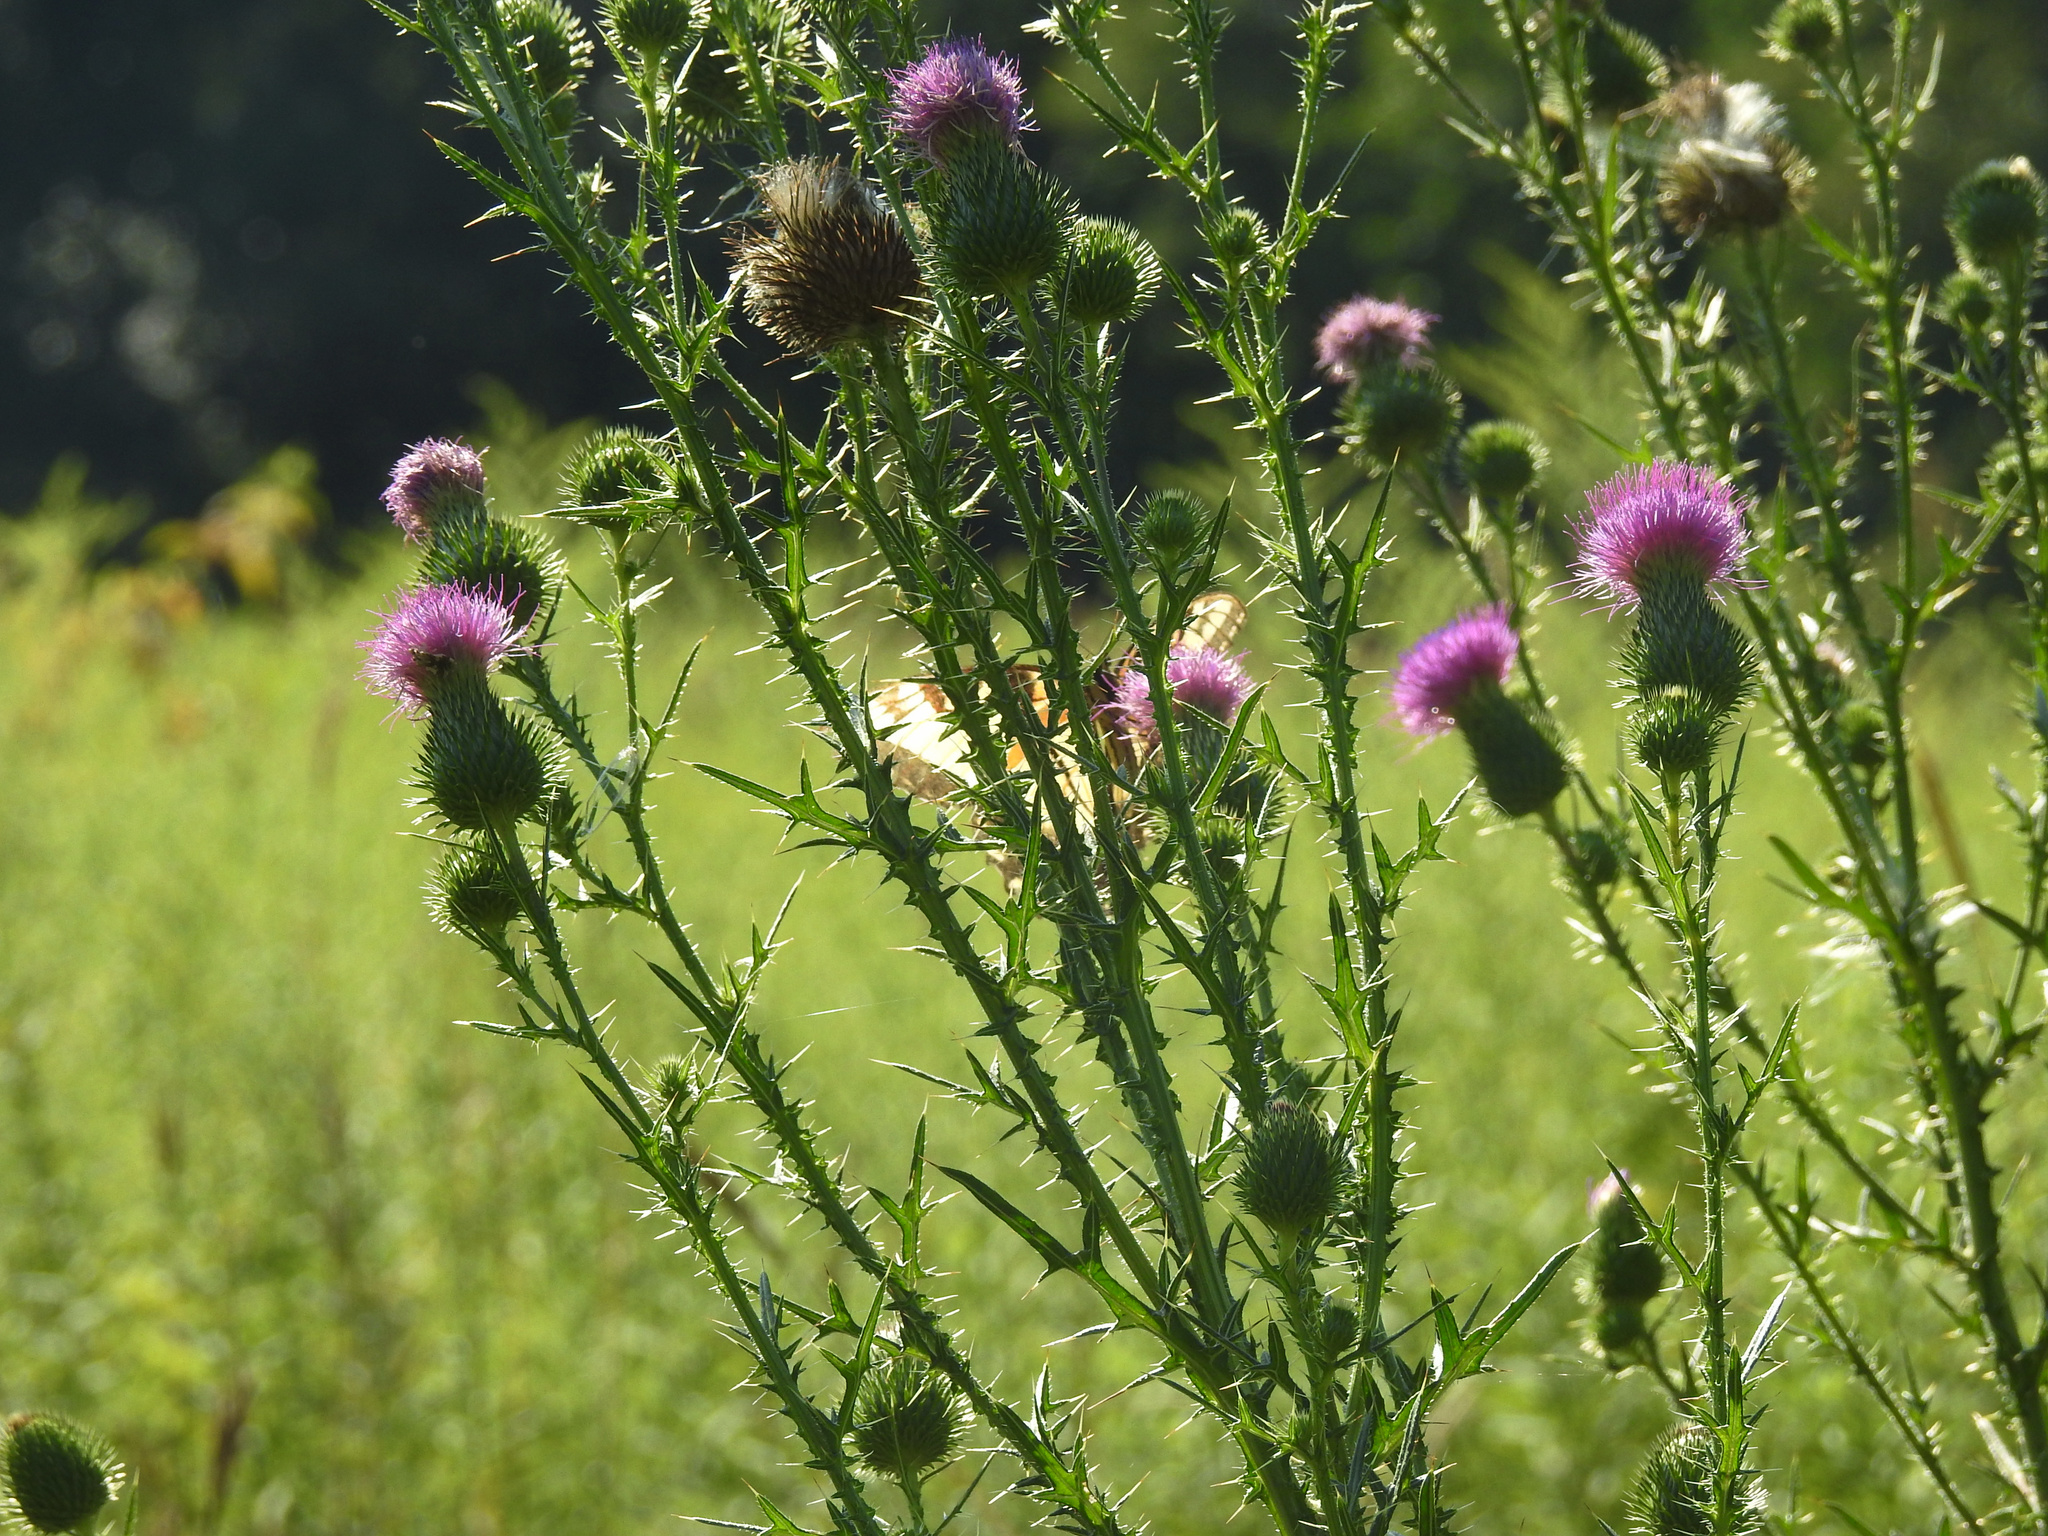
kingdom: Plantae
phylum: Tracheophyta
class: Magnoliopsida
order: Asterales
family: Asteraceae
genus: Cirsium
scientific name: Cirsium vulgare
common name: Bull thistle
